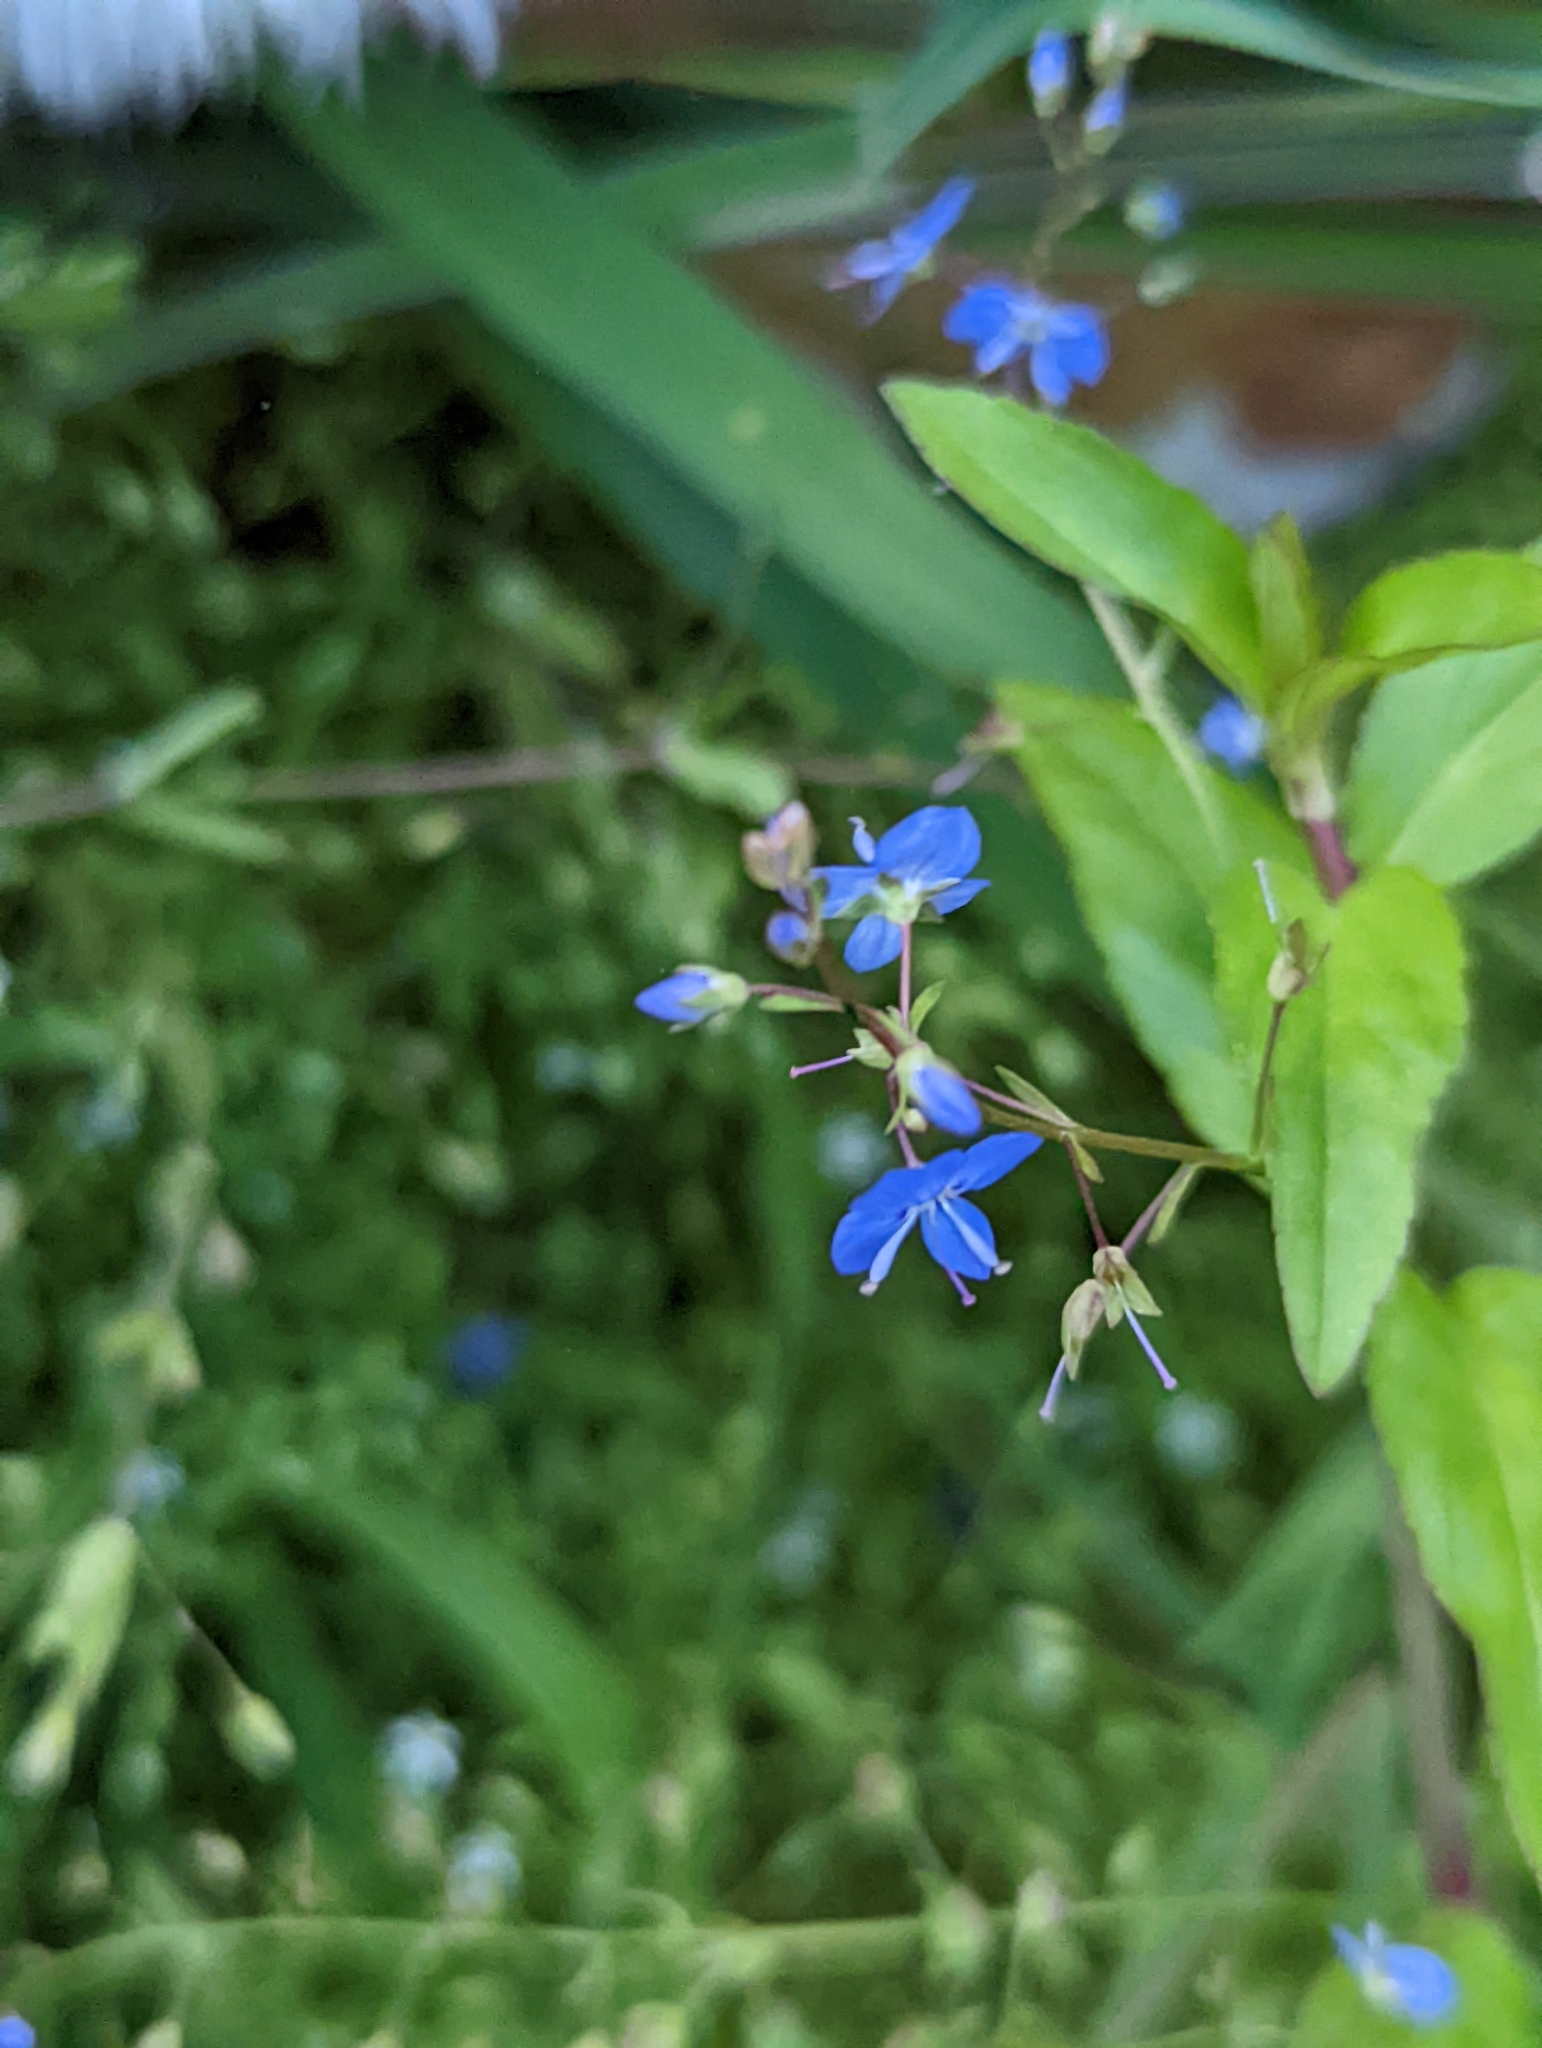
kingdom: Plantae
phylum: Tracheophyta
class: Magnoliopsida
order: Lamiales
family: Plantaginaceae
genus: Veronica
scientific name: Veronica americana
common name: American brooklime
